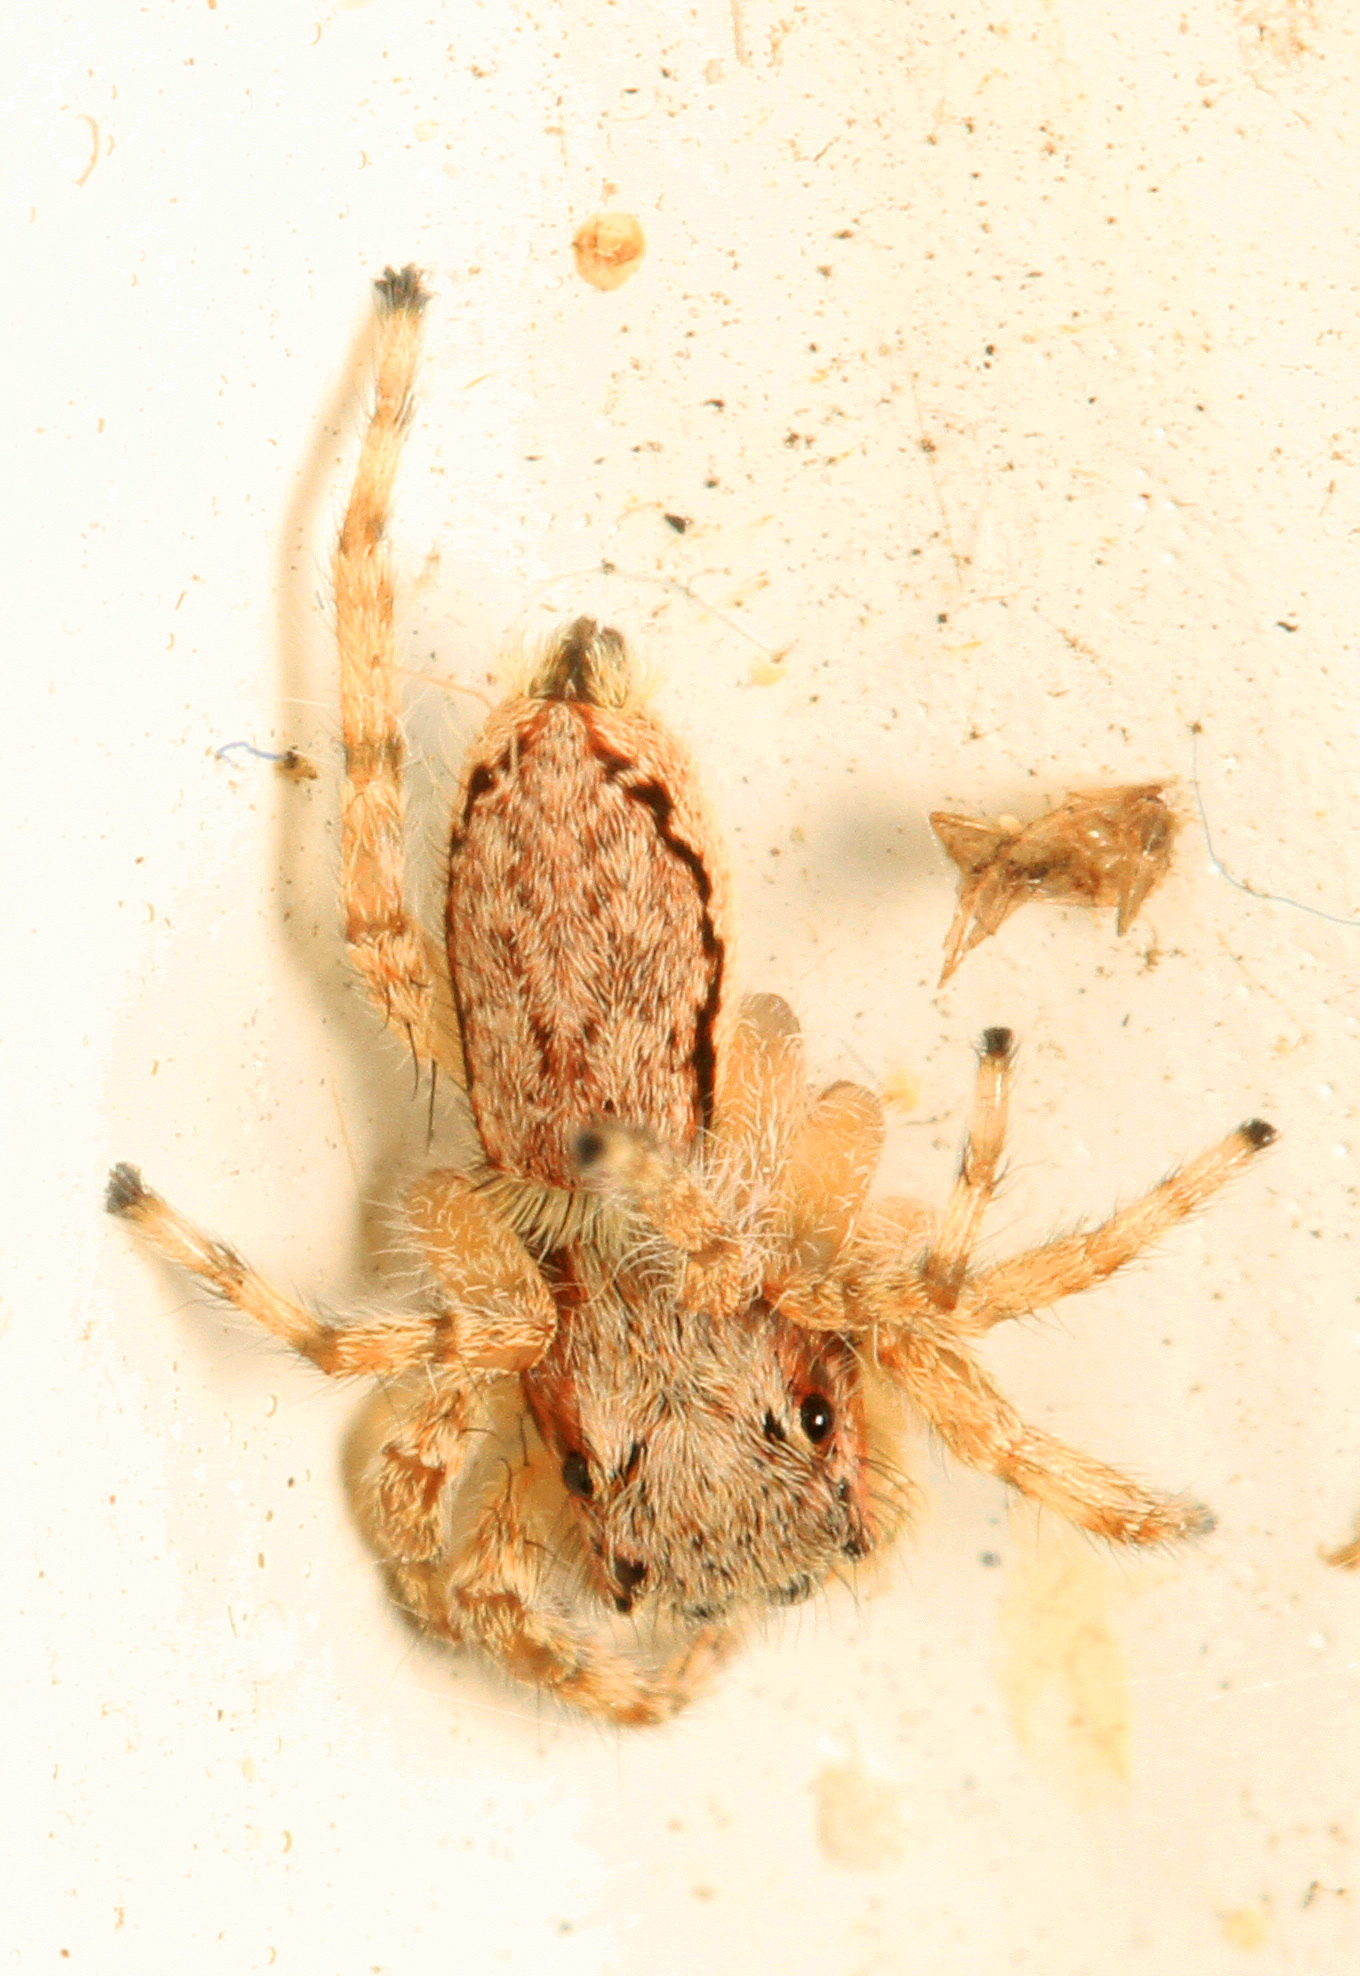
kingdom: Animalia
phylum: Arthropoda
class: Arachnida
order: Araneae
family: Salticidae
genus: Menemerus
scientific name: Menemerus bivittatus
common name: Gray wall jumper
